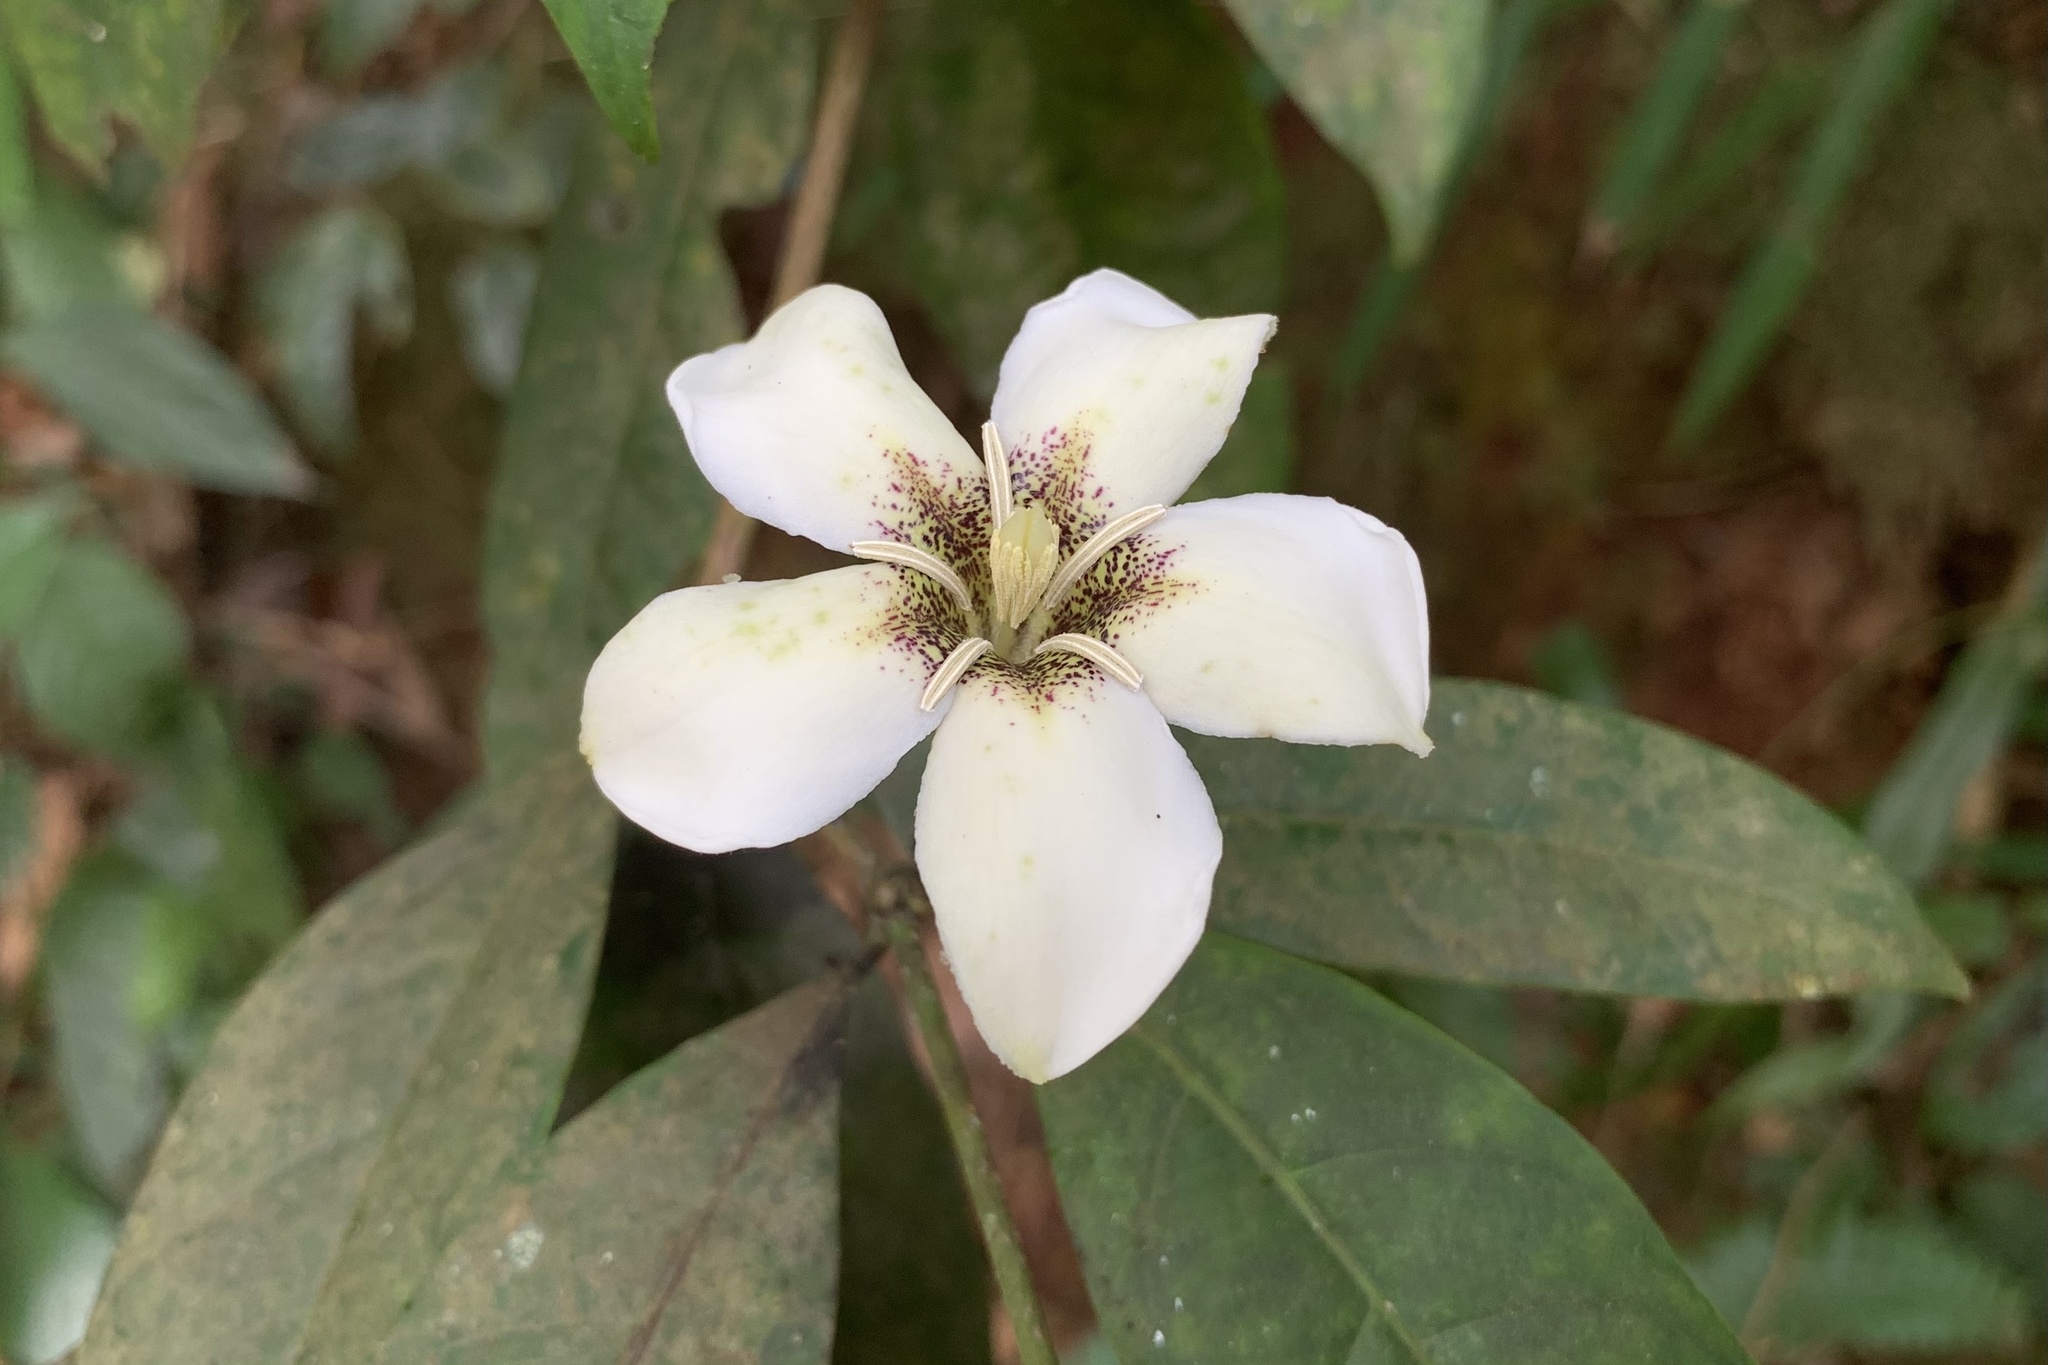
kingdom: Plantae
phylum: Tracheophyta
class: Magnoliopsida
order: Gentianales
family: Rubiaceae
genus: Ridsdalea
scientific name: Ridsdalea sootepensis
